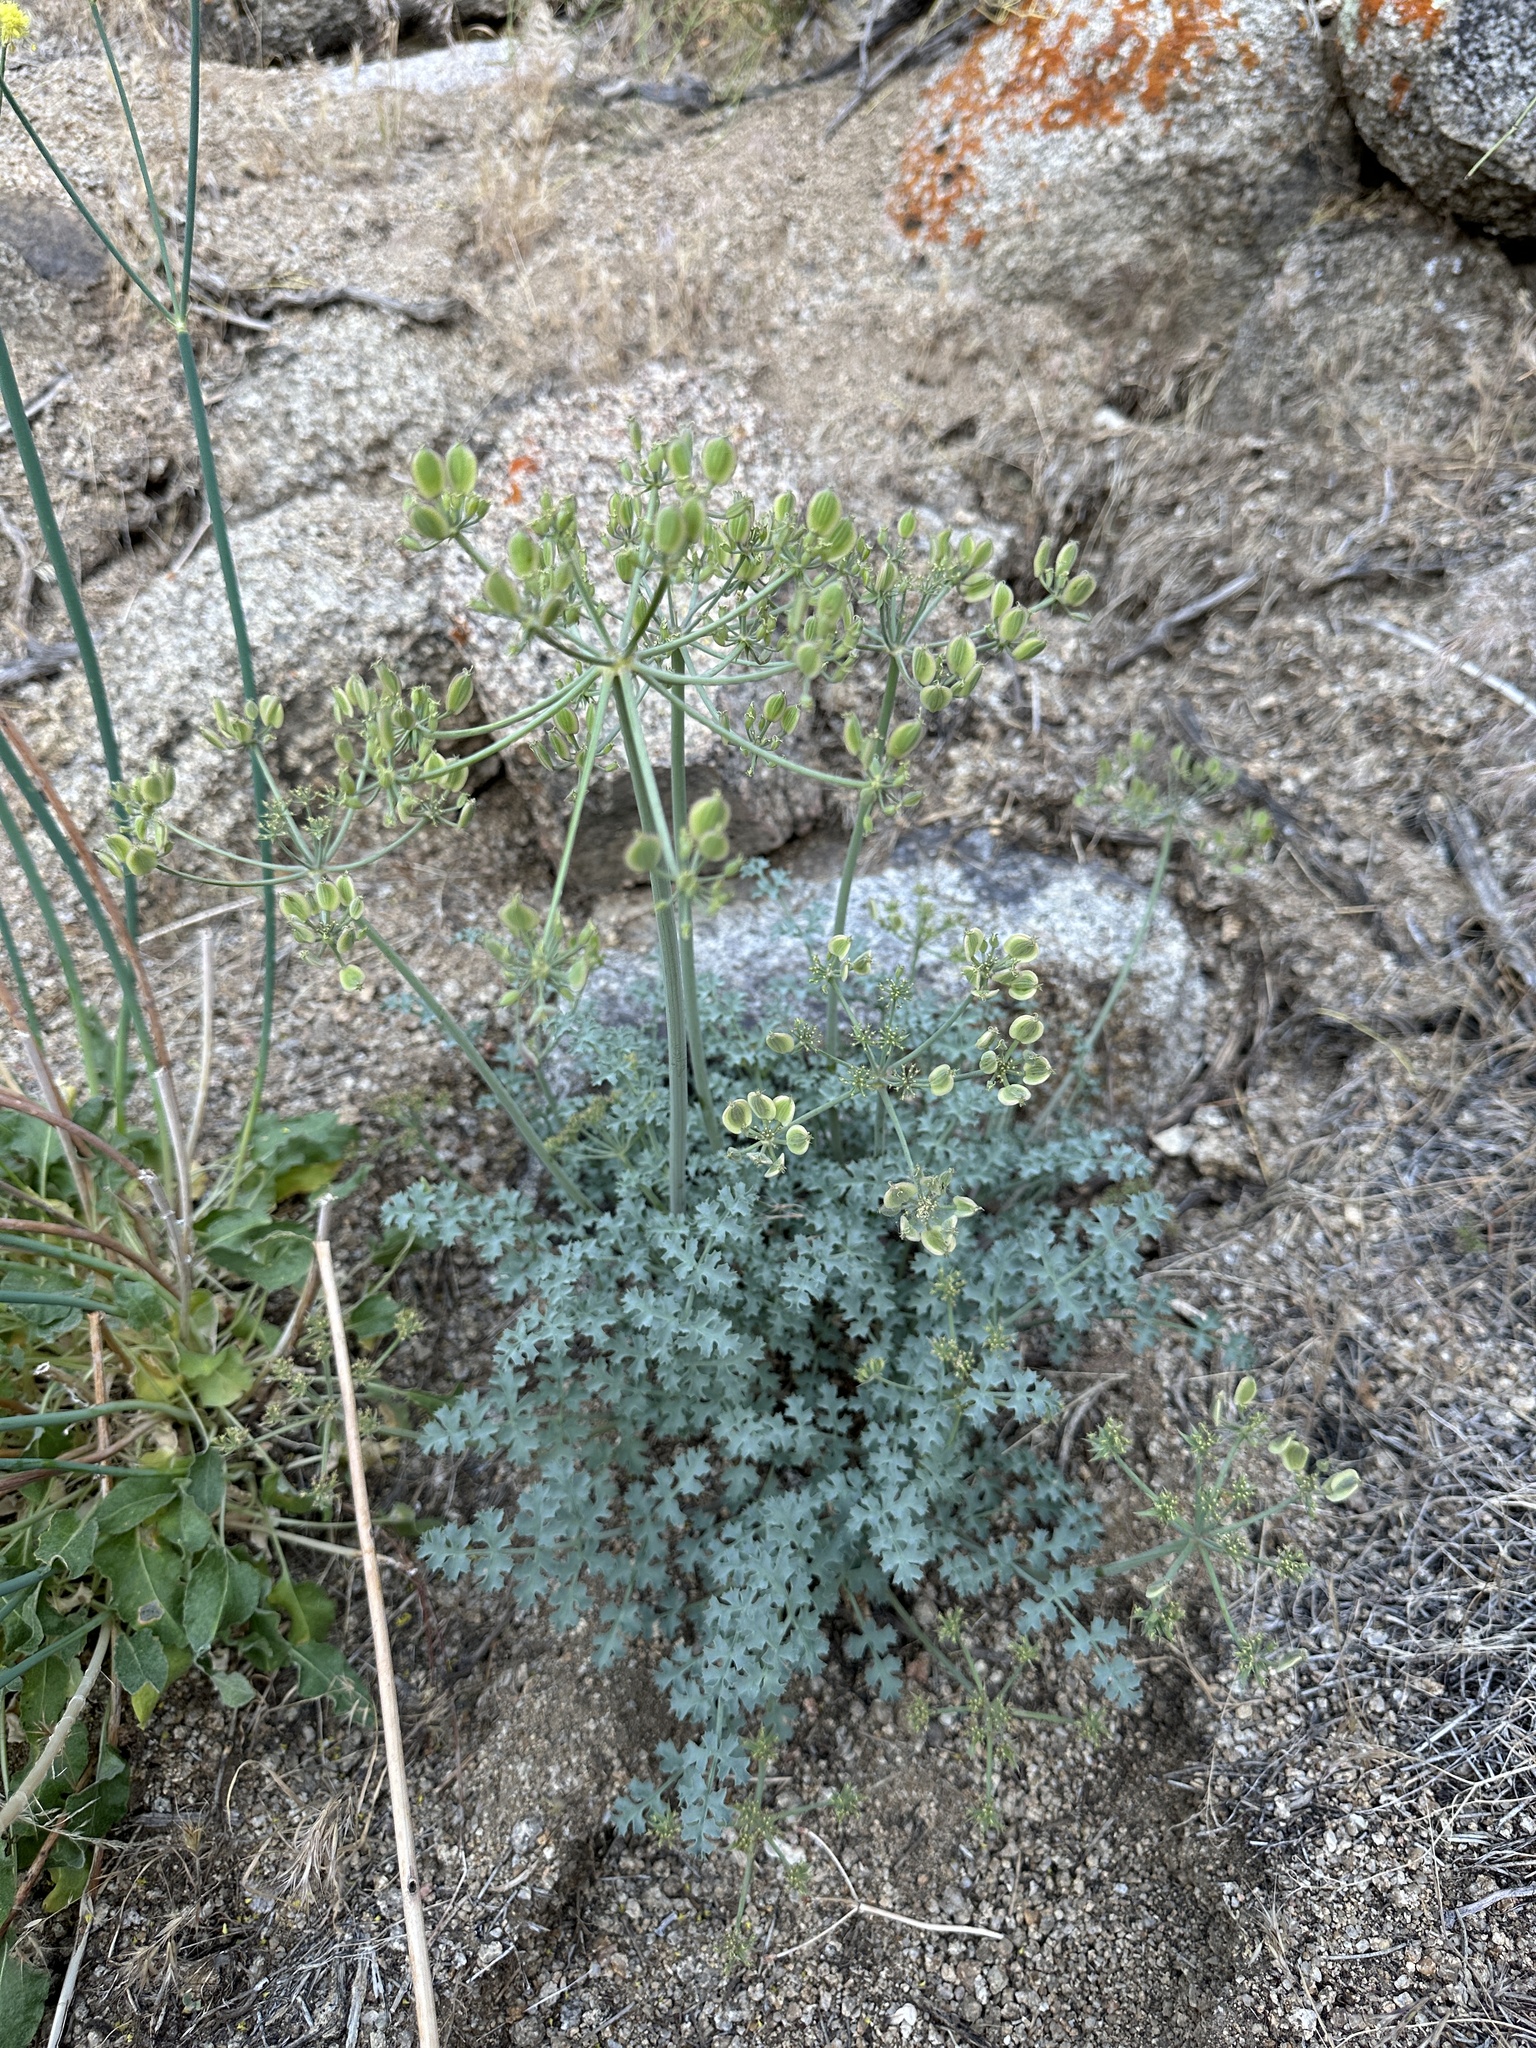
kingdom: Plantae
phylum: Tracheophyta
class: Magnoliopsida
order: Apiales
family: Apiaceae
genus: Lomatium
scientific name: Lomatium rigidum
